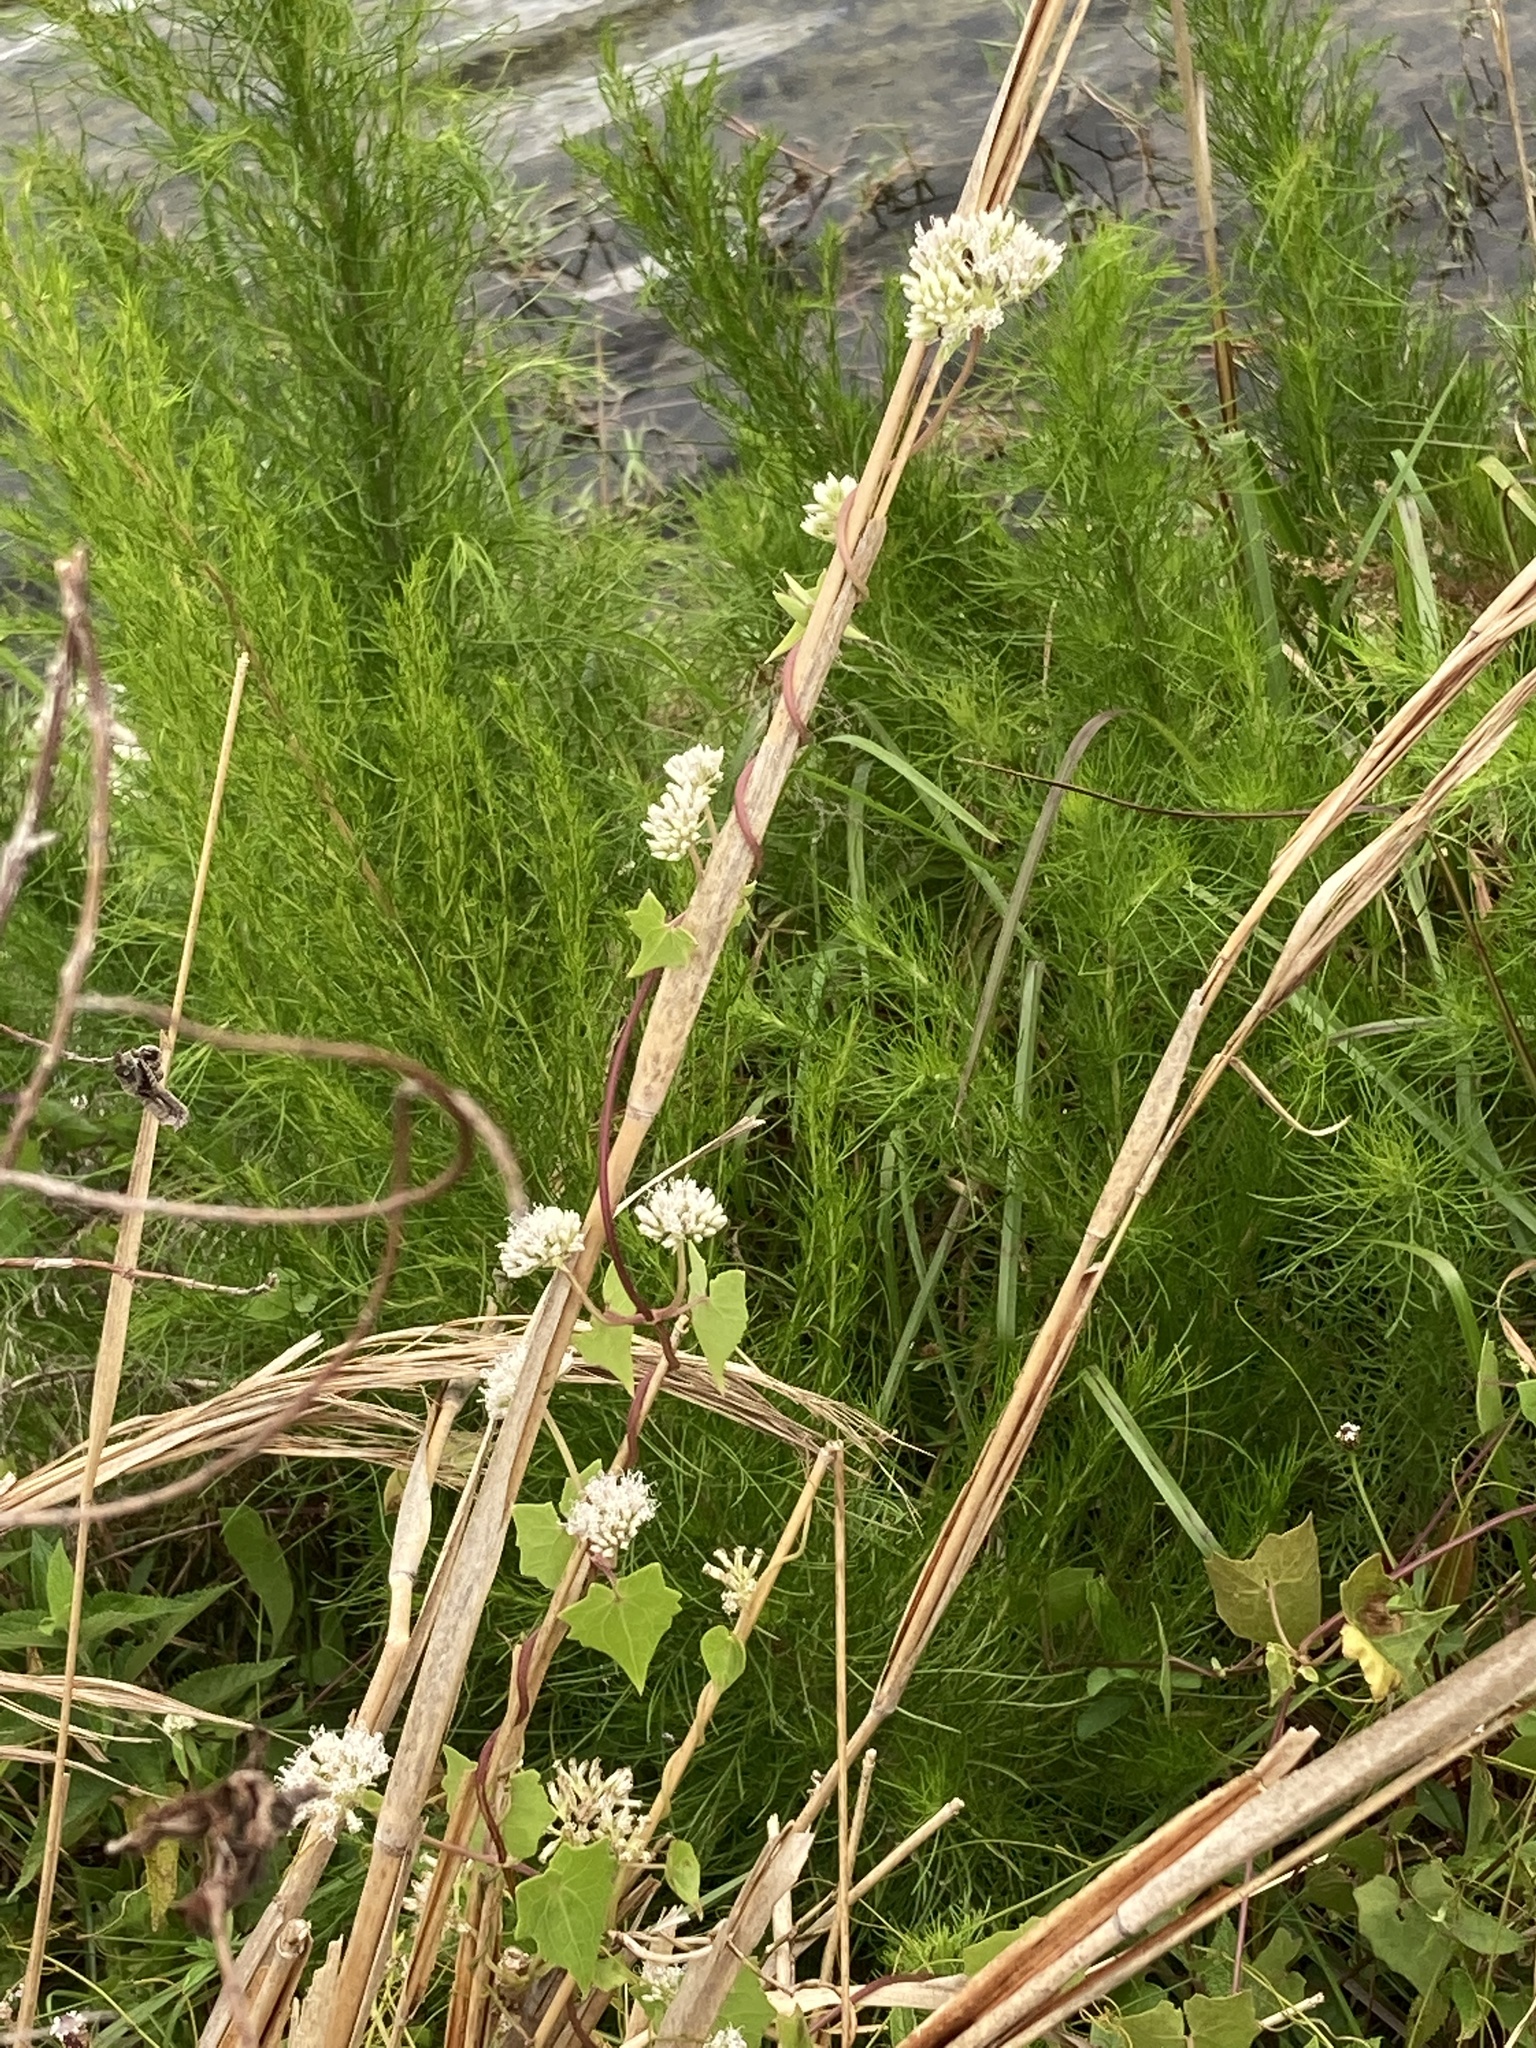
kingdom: Plantae
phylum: Tracheophyta
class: Magnoliopsida
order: Asterales
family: Asteraceae
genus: Mikania
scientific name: Mikania scandens
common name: Climbing hempvine
